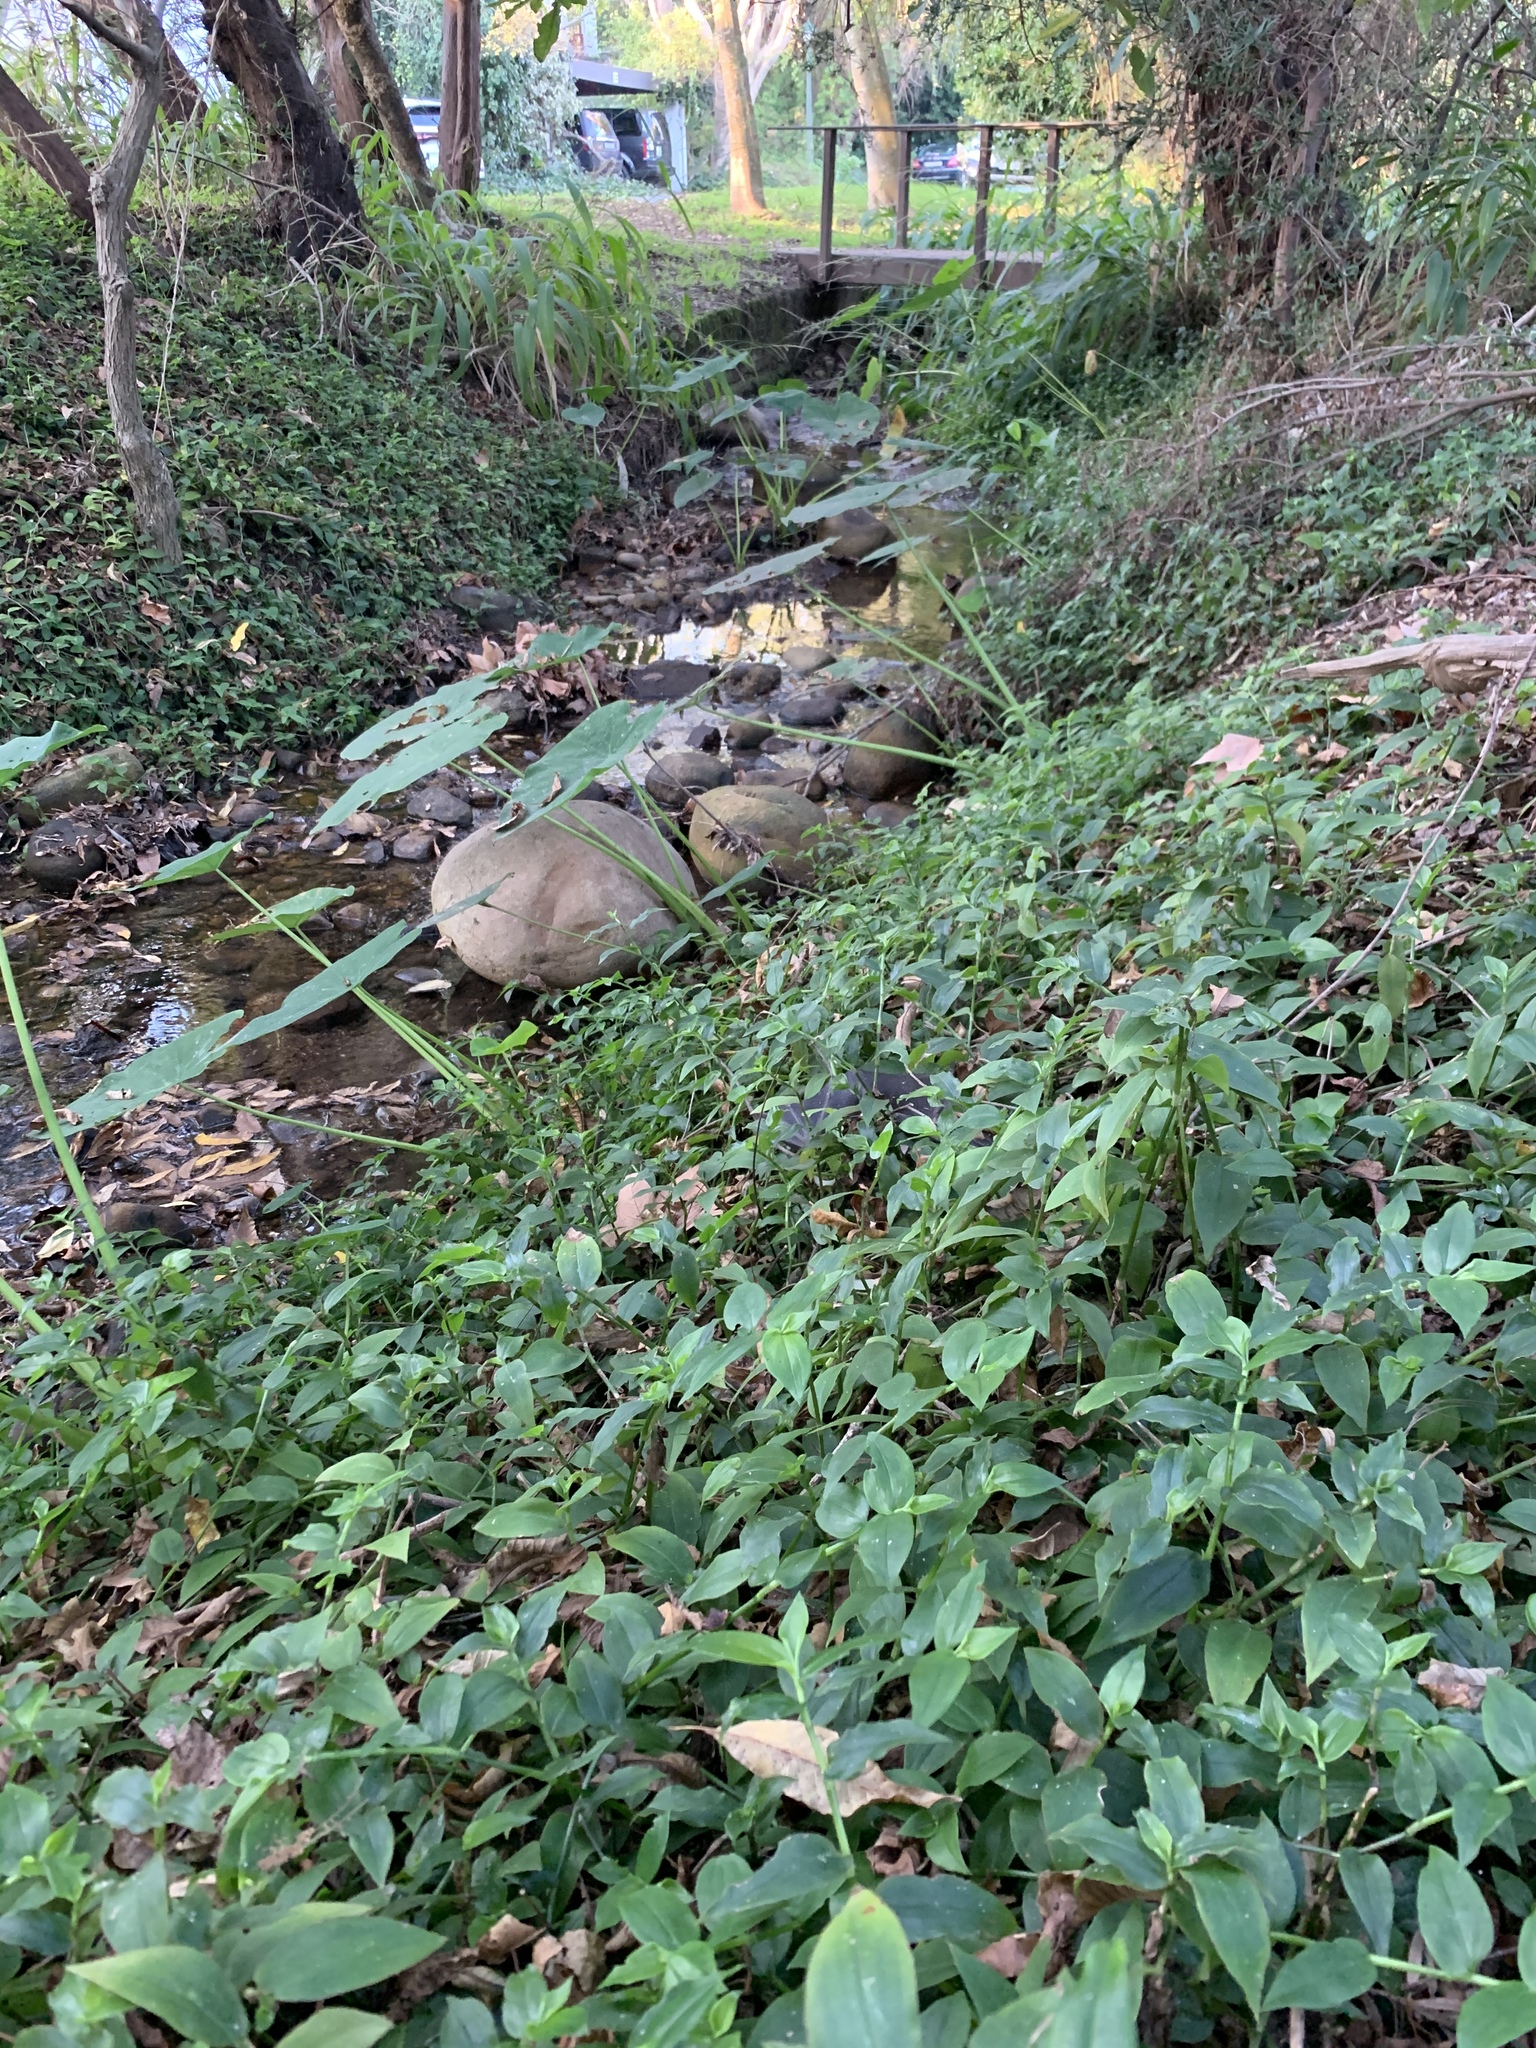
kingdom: Plantae
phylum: Tracheophyta
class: Liliopsida
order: Commelinales
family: Commelinaceae
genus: Tradescantia
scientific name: Tradescantia fluminensis
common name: Wandering-jew
